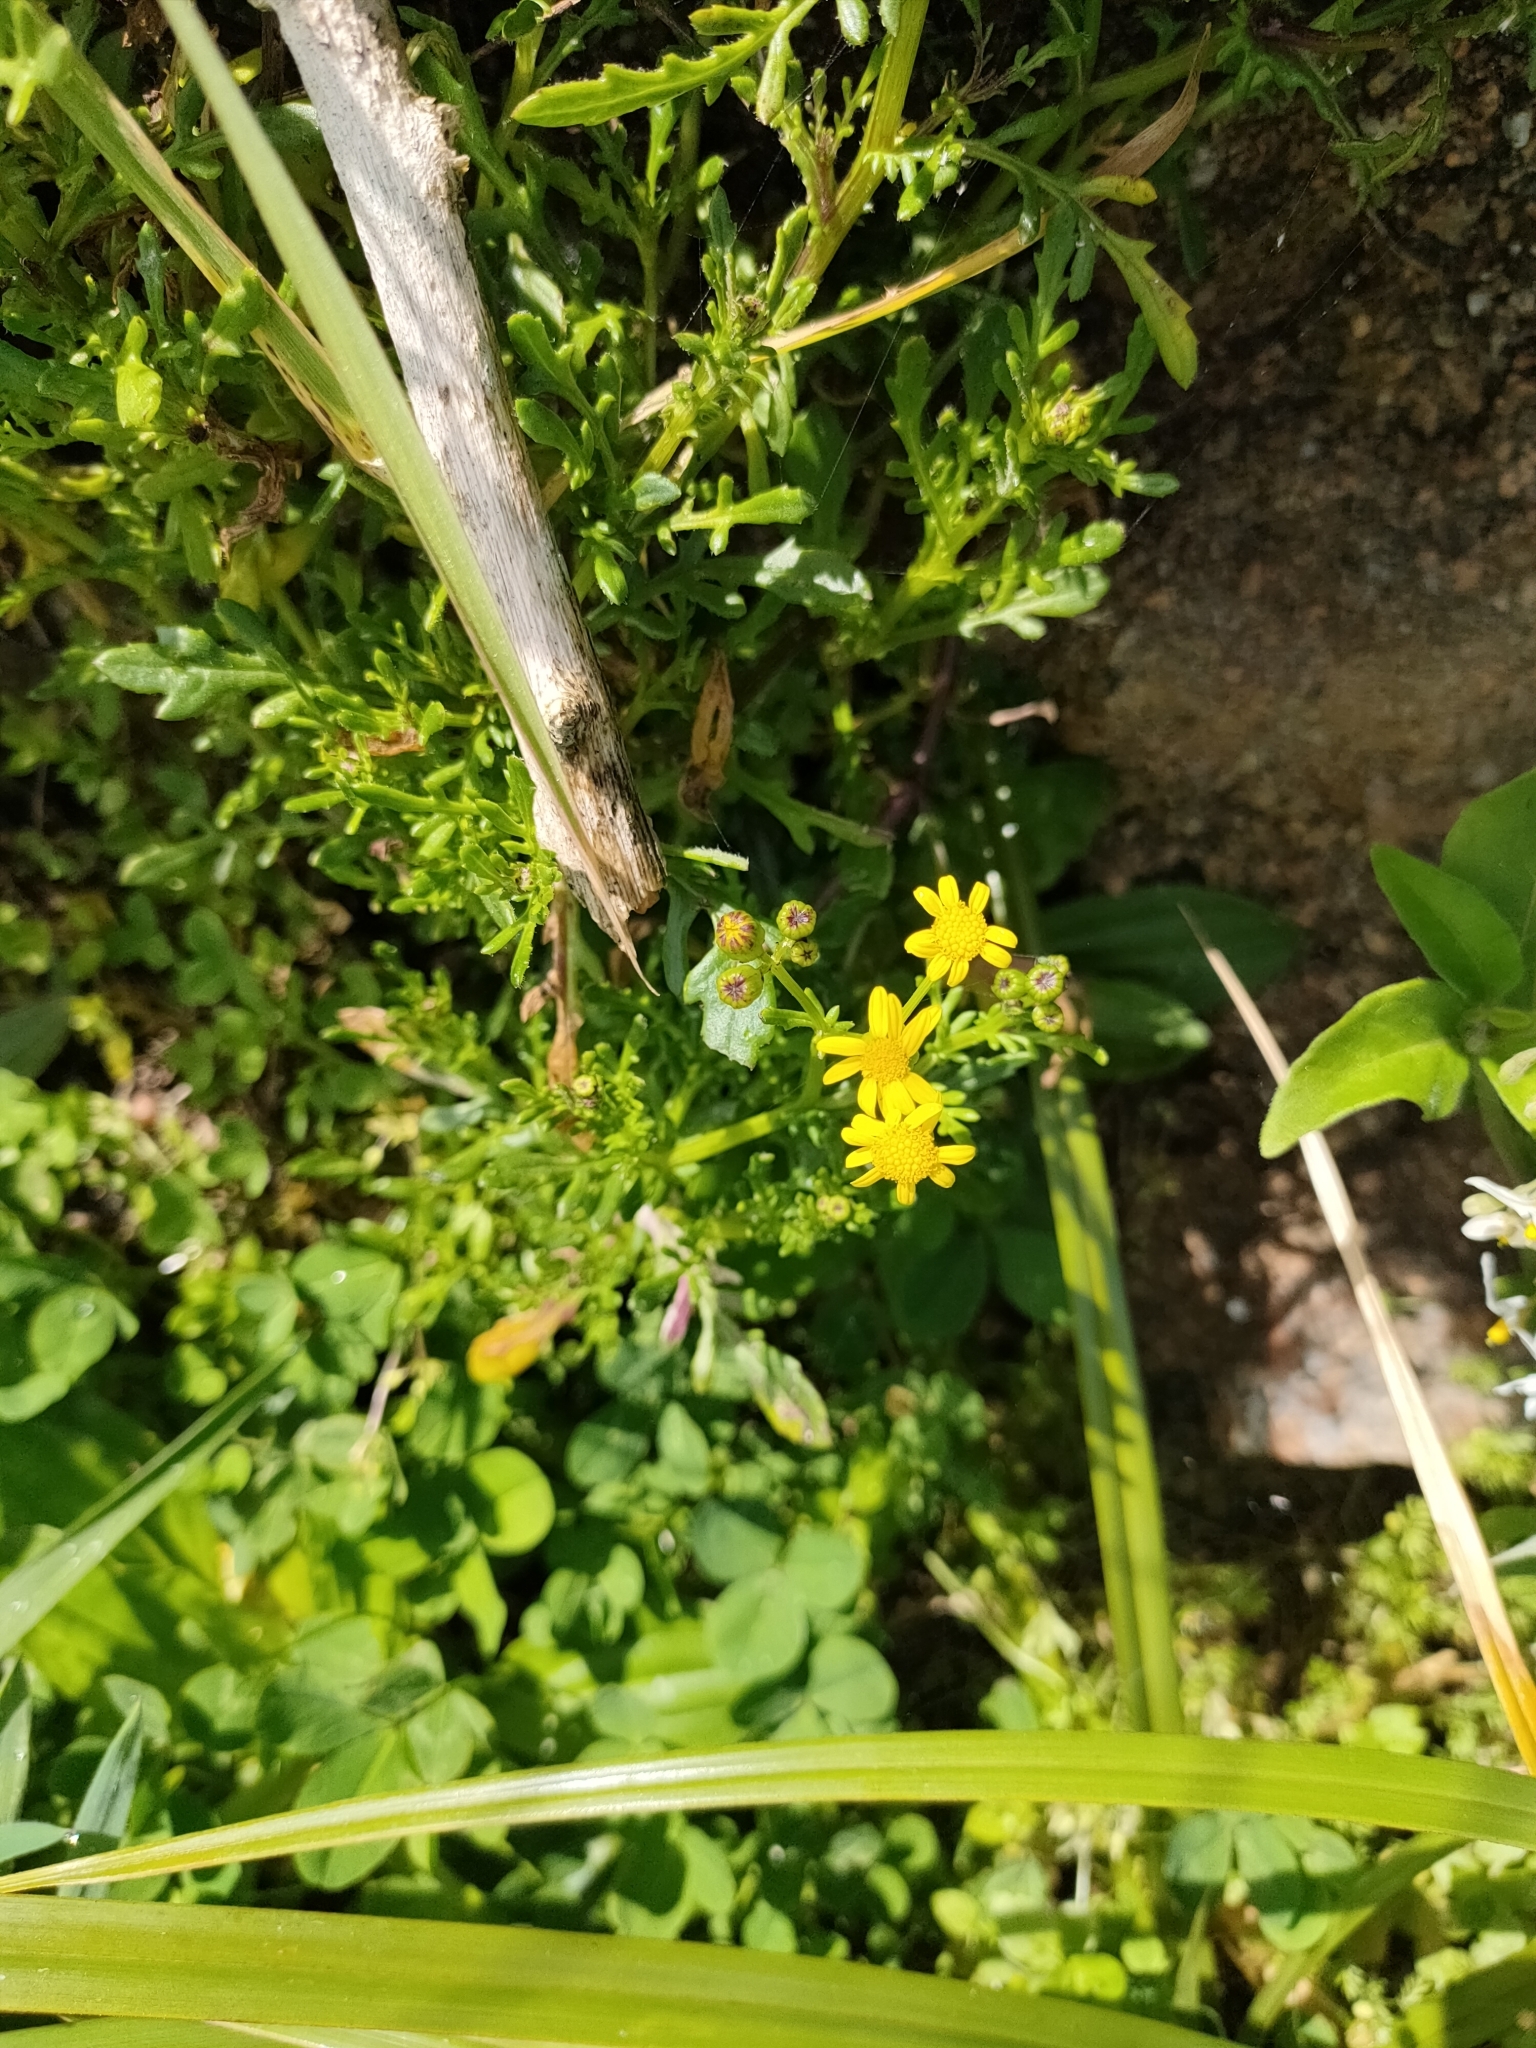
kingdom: Plantae
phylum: Tracheophyta
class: Magnoliopsida
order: Asterales
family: Asteraceae
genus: Senecio
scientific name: Senecio lautus
